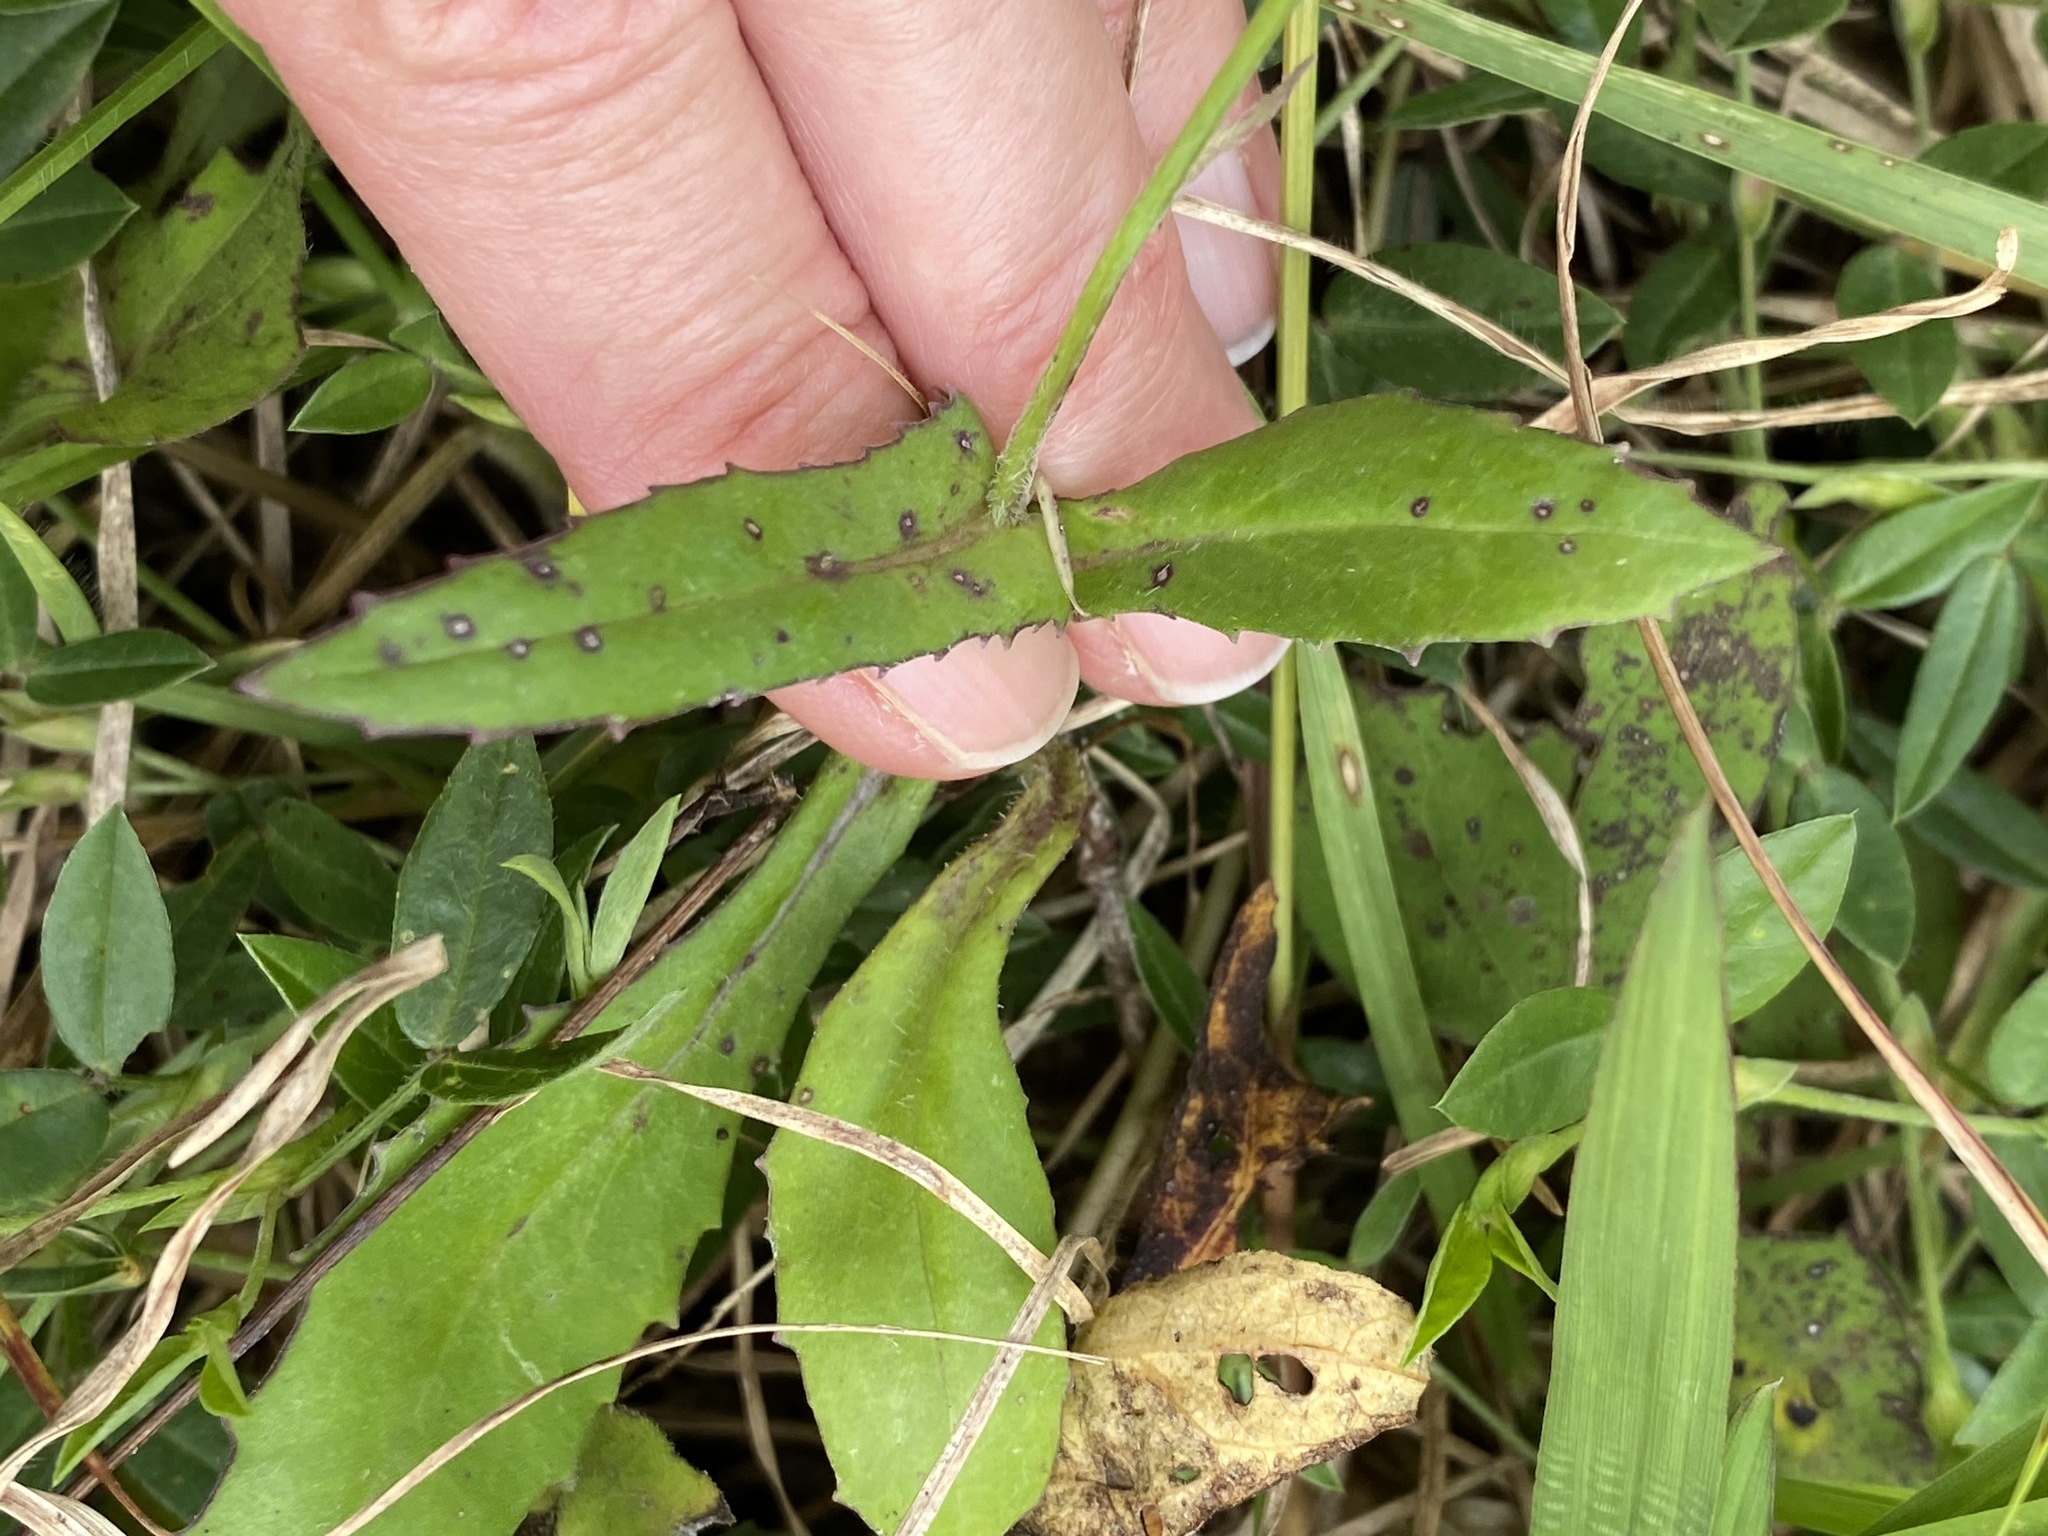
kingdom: Plantae
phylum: Tracheophyta
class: Magnoliopsida
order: Asterales
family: Asteraceae
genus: Emilia
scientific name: Emilia fosbergii
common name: Florida tasselflower
